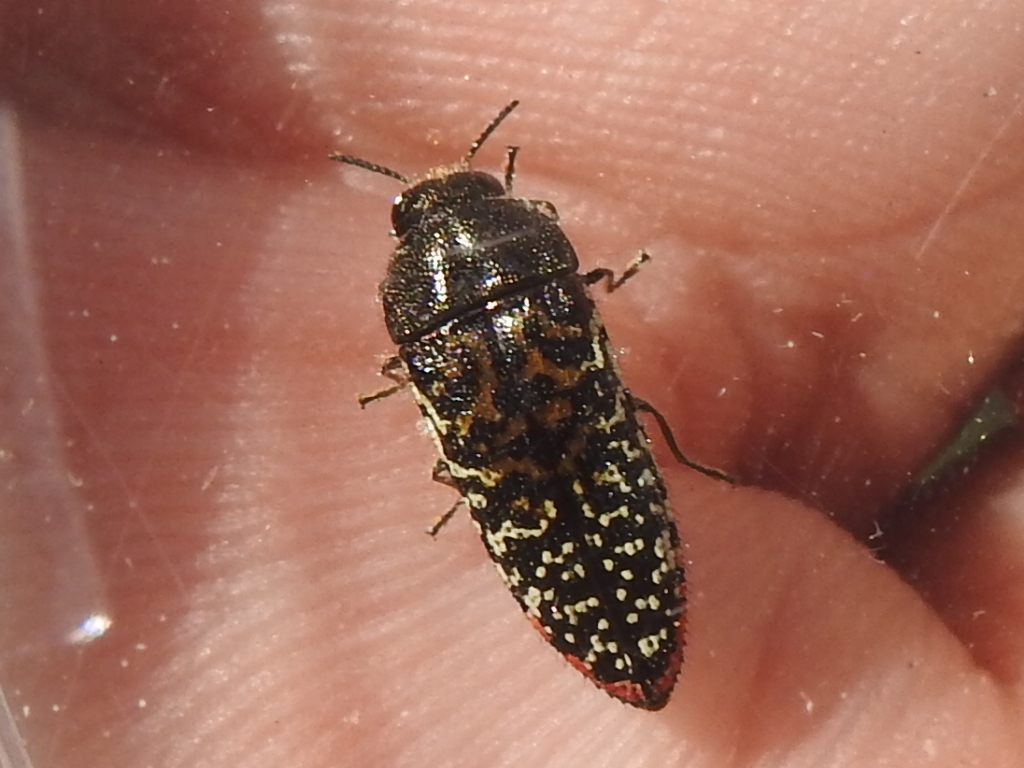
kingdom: Animalia
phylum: Arthropoda
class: Insecta
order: Coleoptera
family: Buprestidae
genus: Acmaeodera
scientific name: Acmaeodera haemorrhoa
